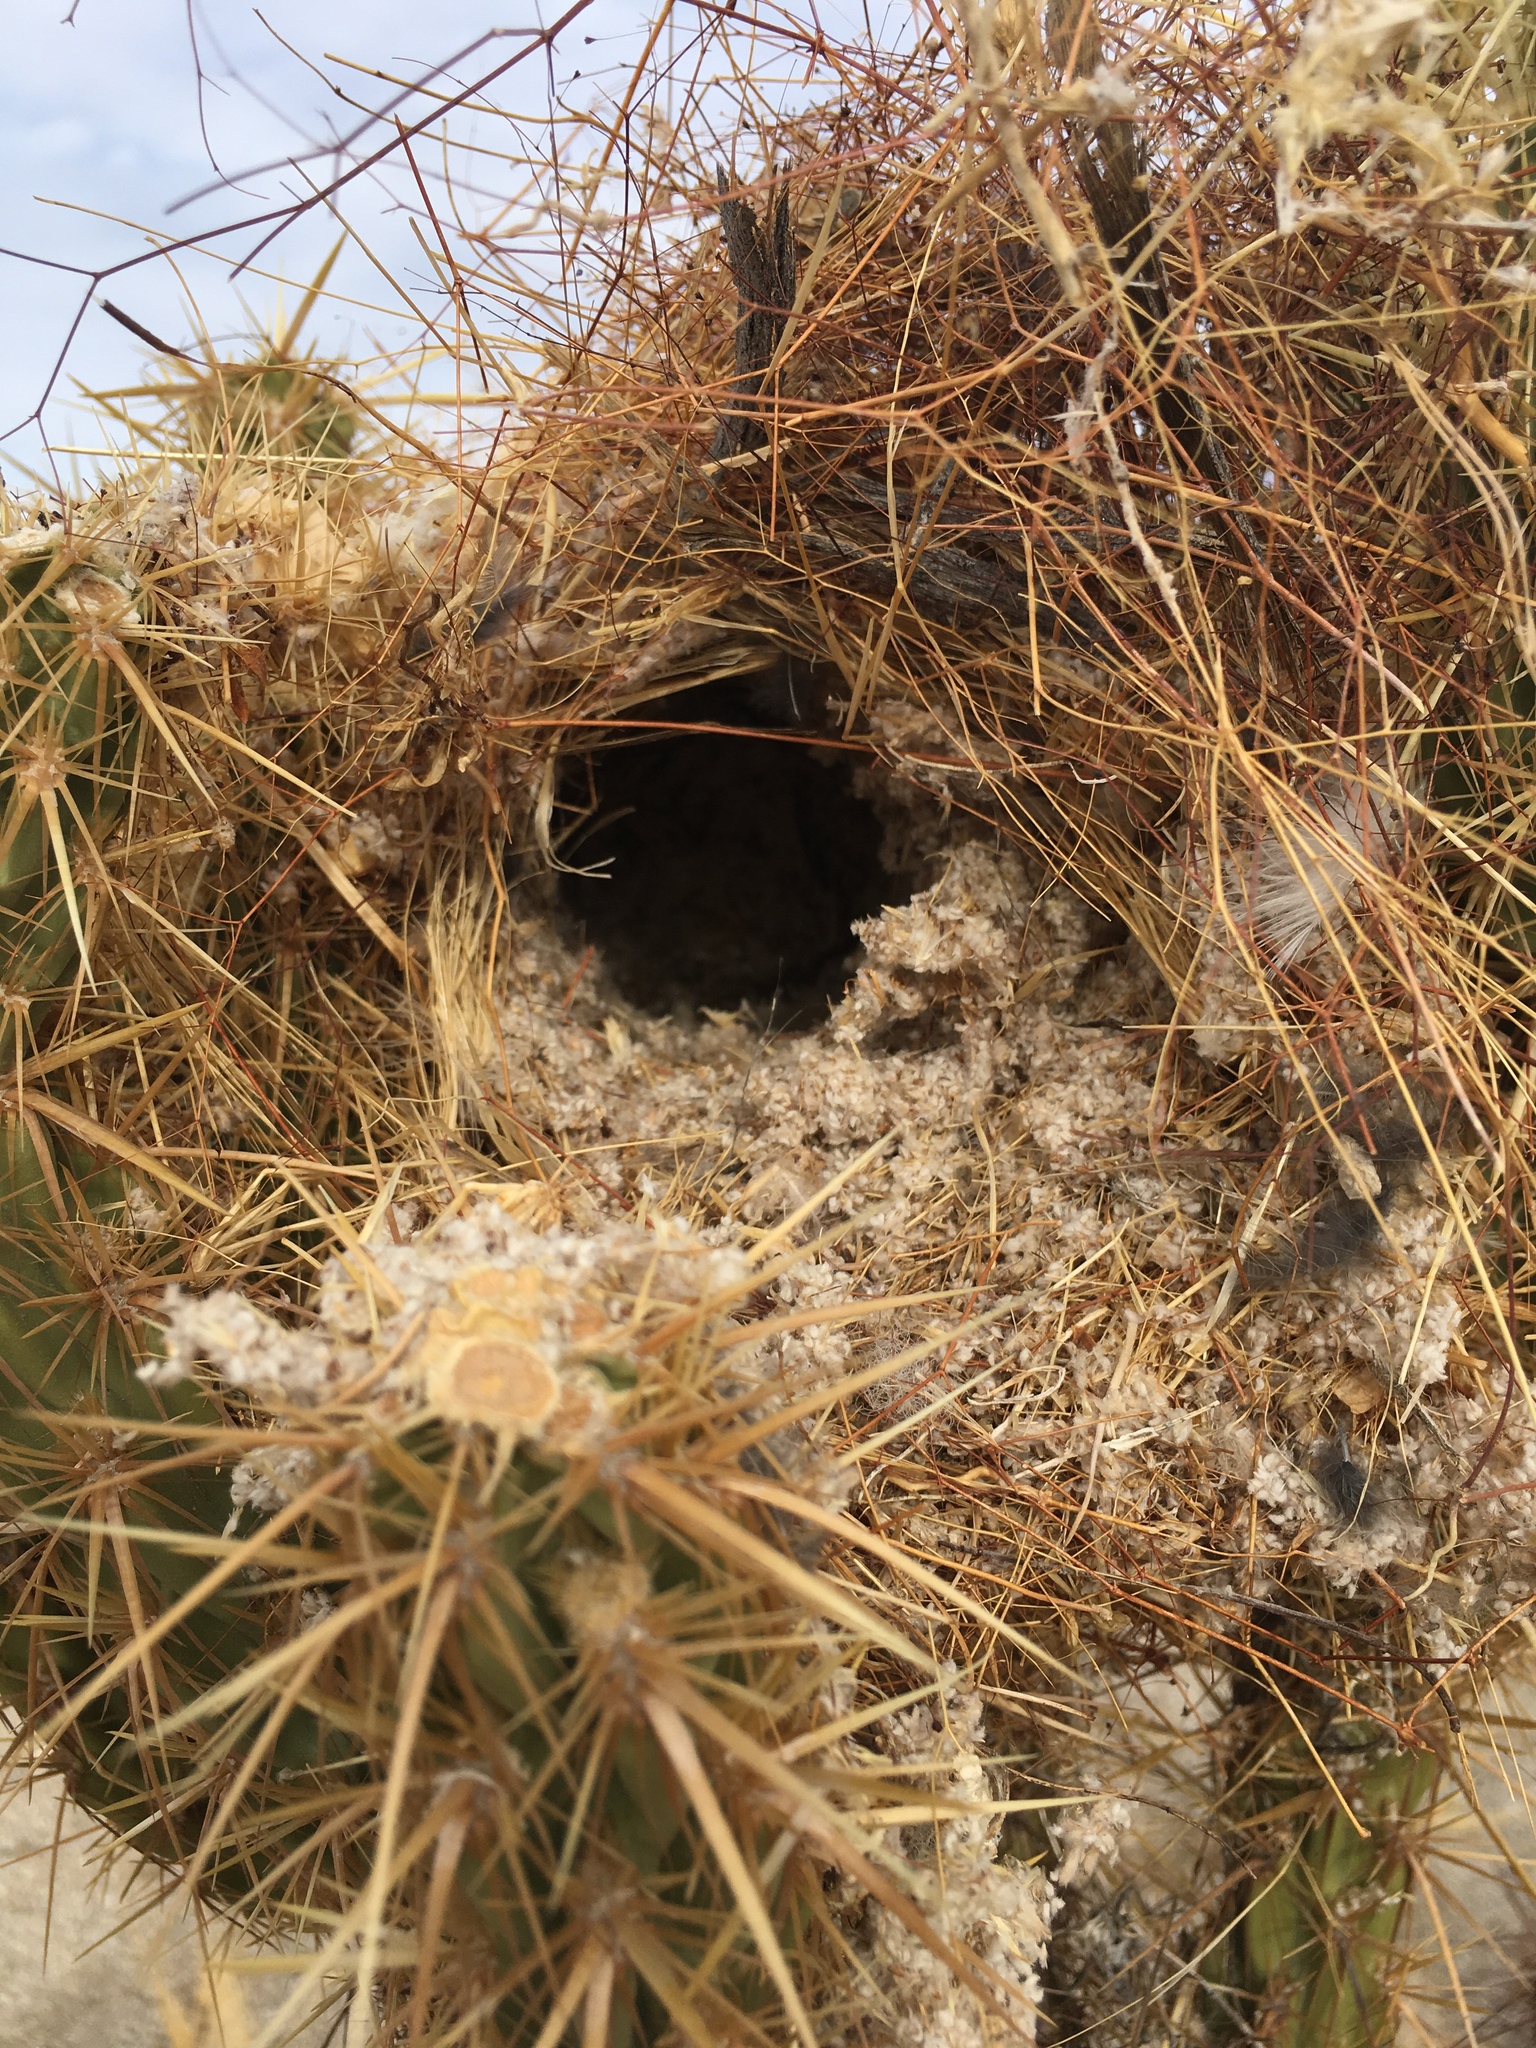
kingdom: Plantae
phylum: Tracheophyta
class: Magnoliopsida
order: Caryophyllales
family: Cactaceae
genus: Cylindropuntia
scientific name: Cylindropuntia ganderi
